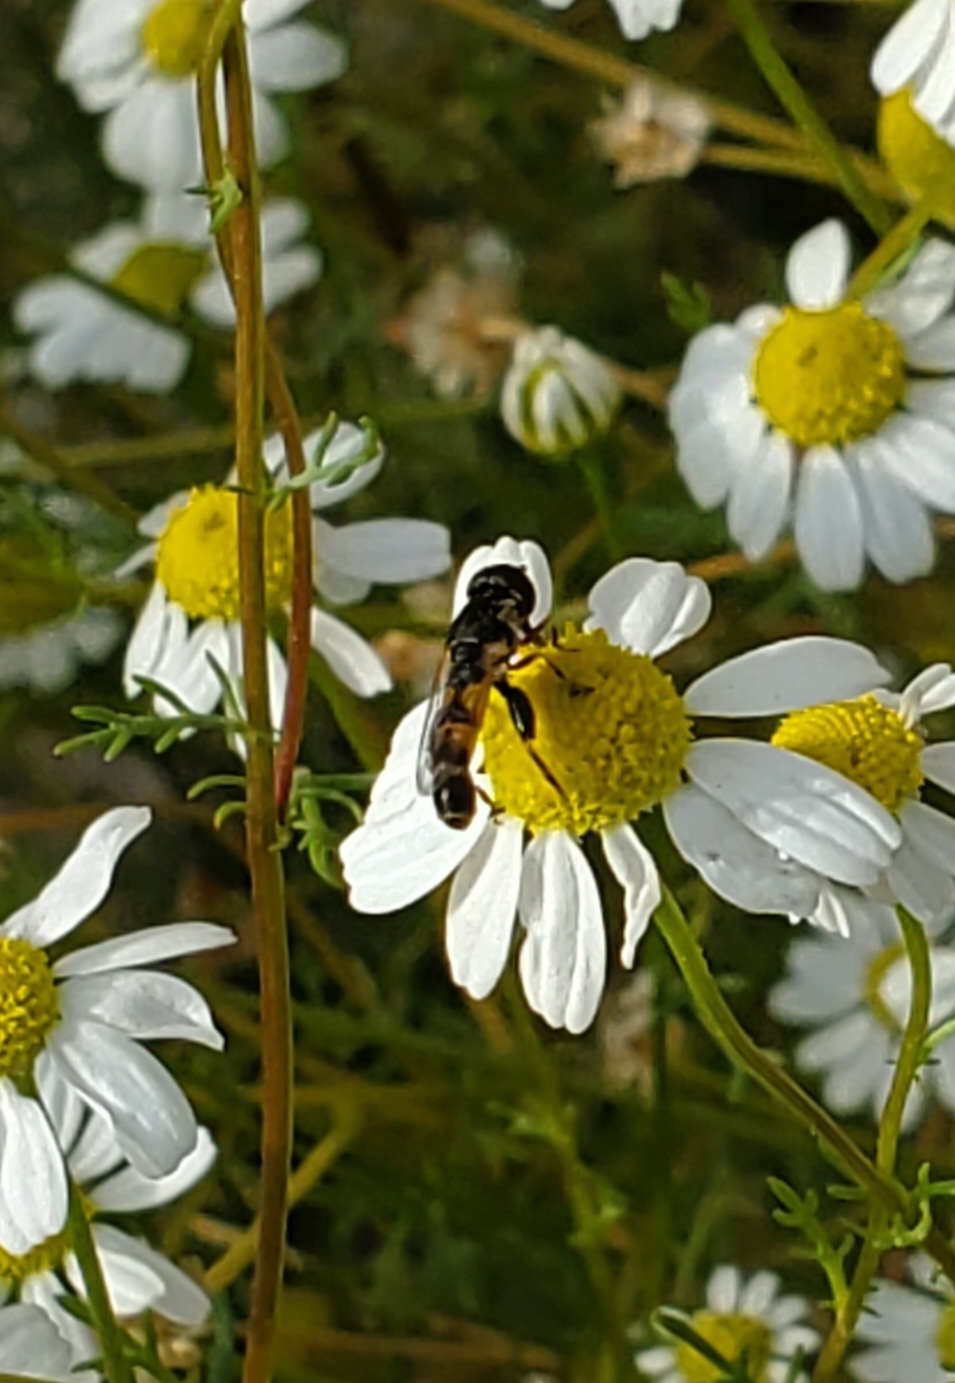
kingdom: Animalia
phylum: Arthropoda
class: Insecta
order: Diptera
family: Syrphidae
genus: Syritta
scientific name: Syritta pipiens
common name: Hover fly
